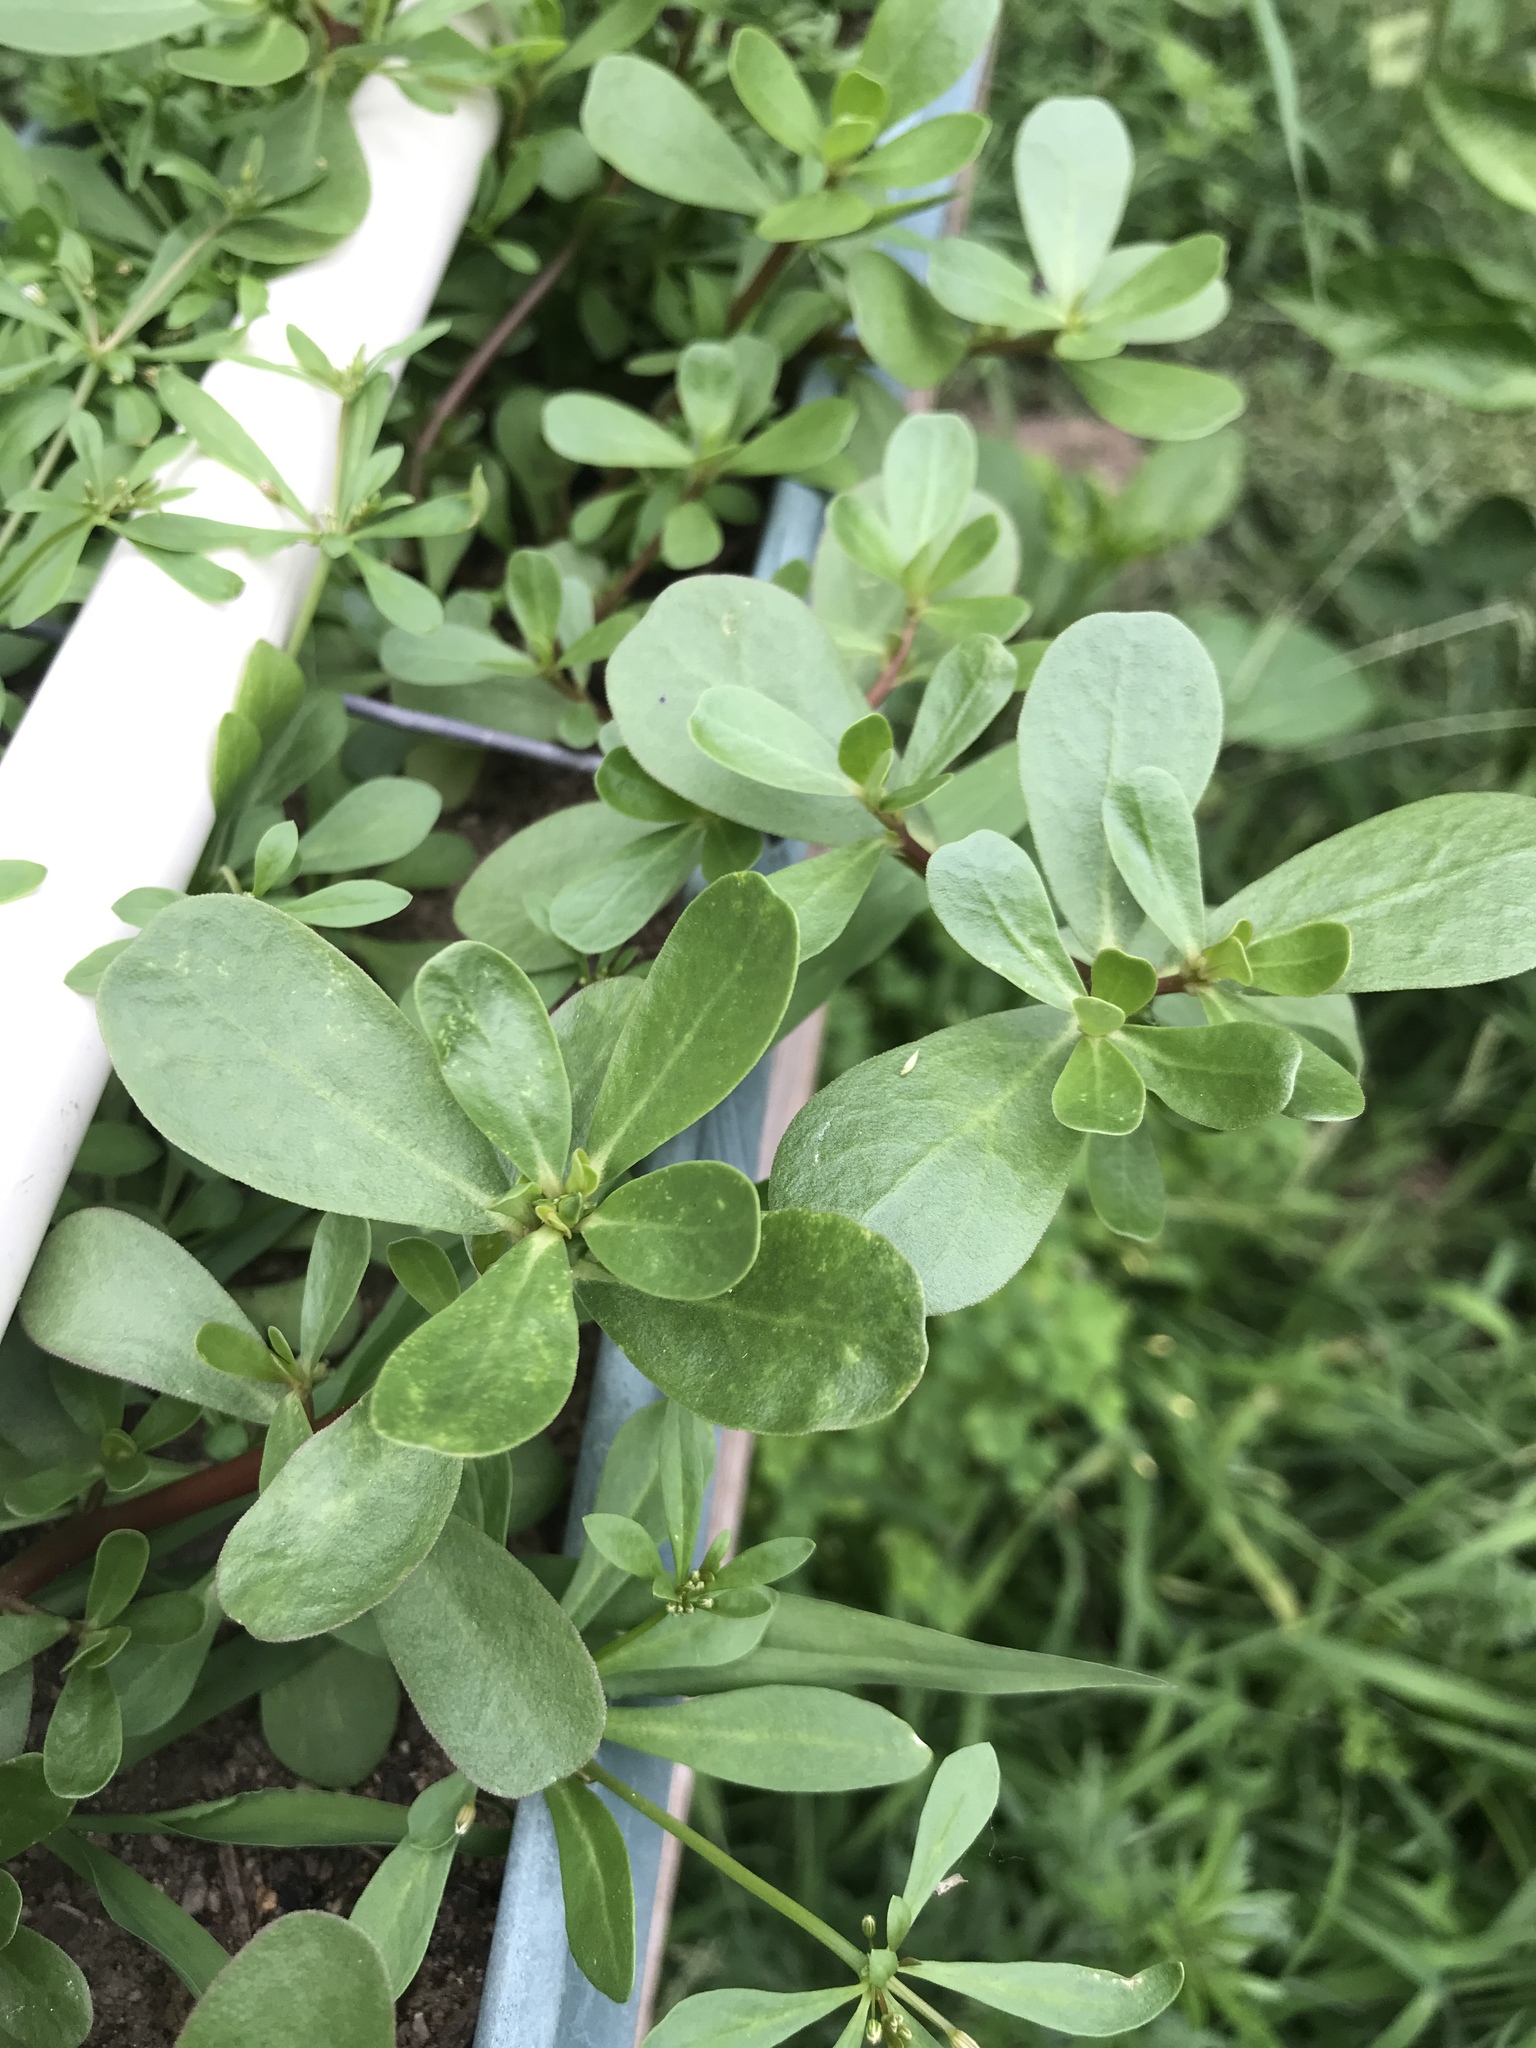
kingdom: Plantae
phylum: Tracheophyta
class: Magnoliopsida
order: Caryophyllales
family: Portulacaceae
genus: Portulaca
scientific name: Portulaca oleracea
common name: Common purslane
